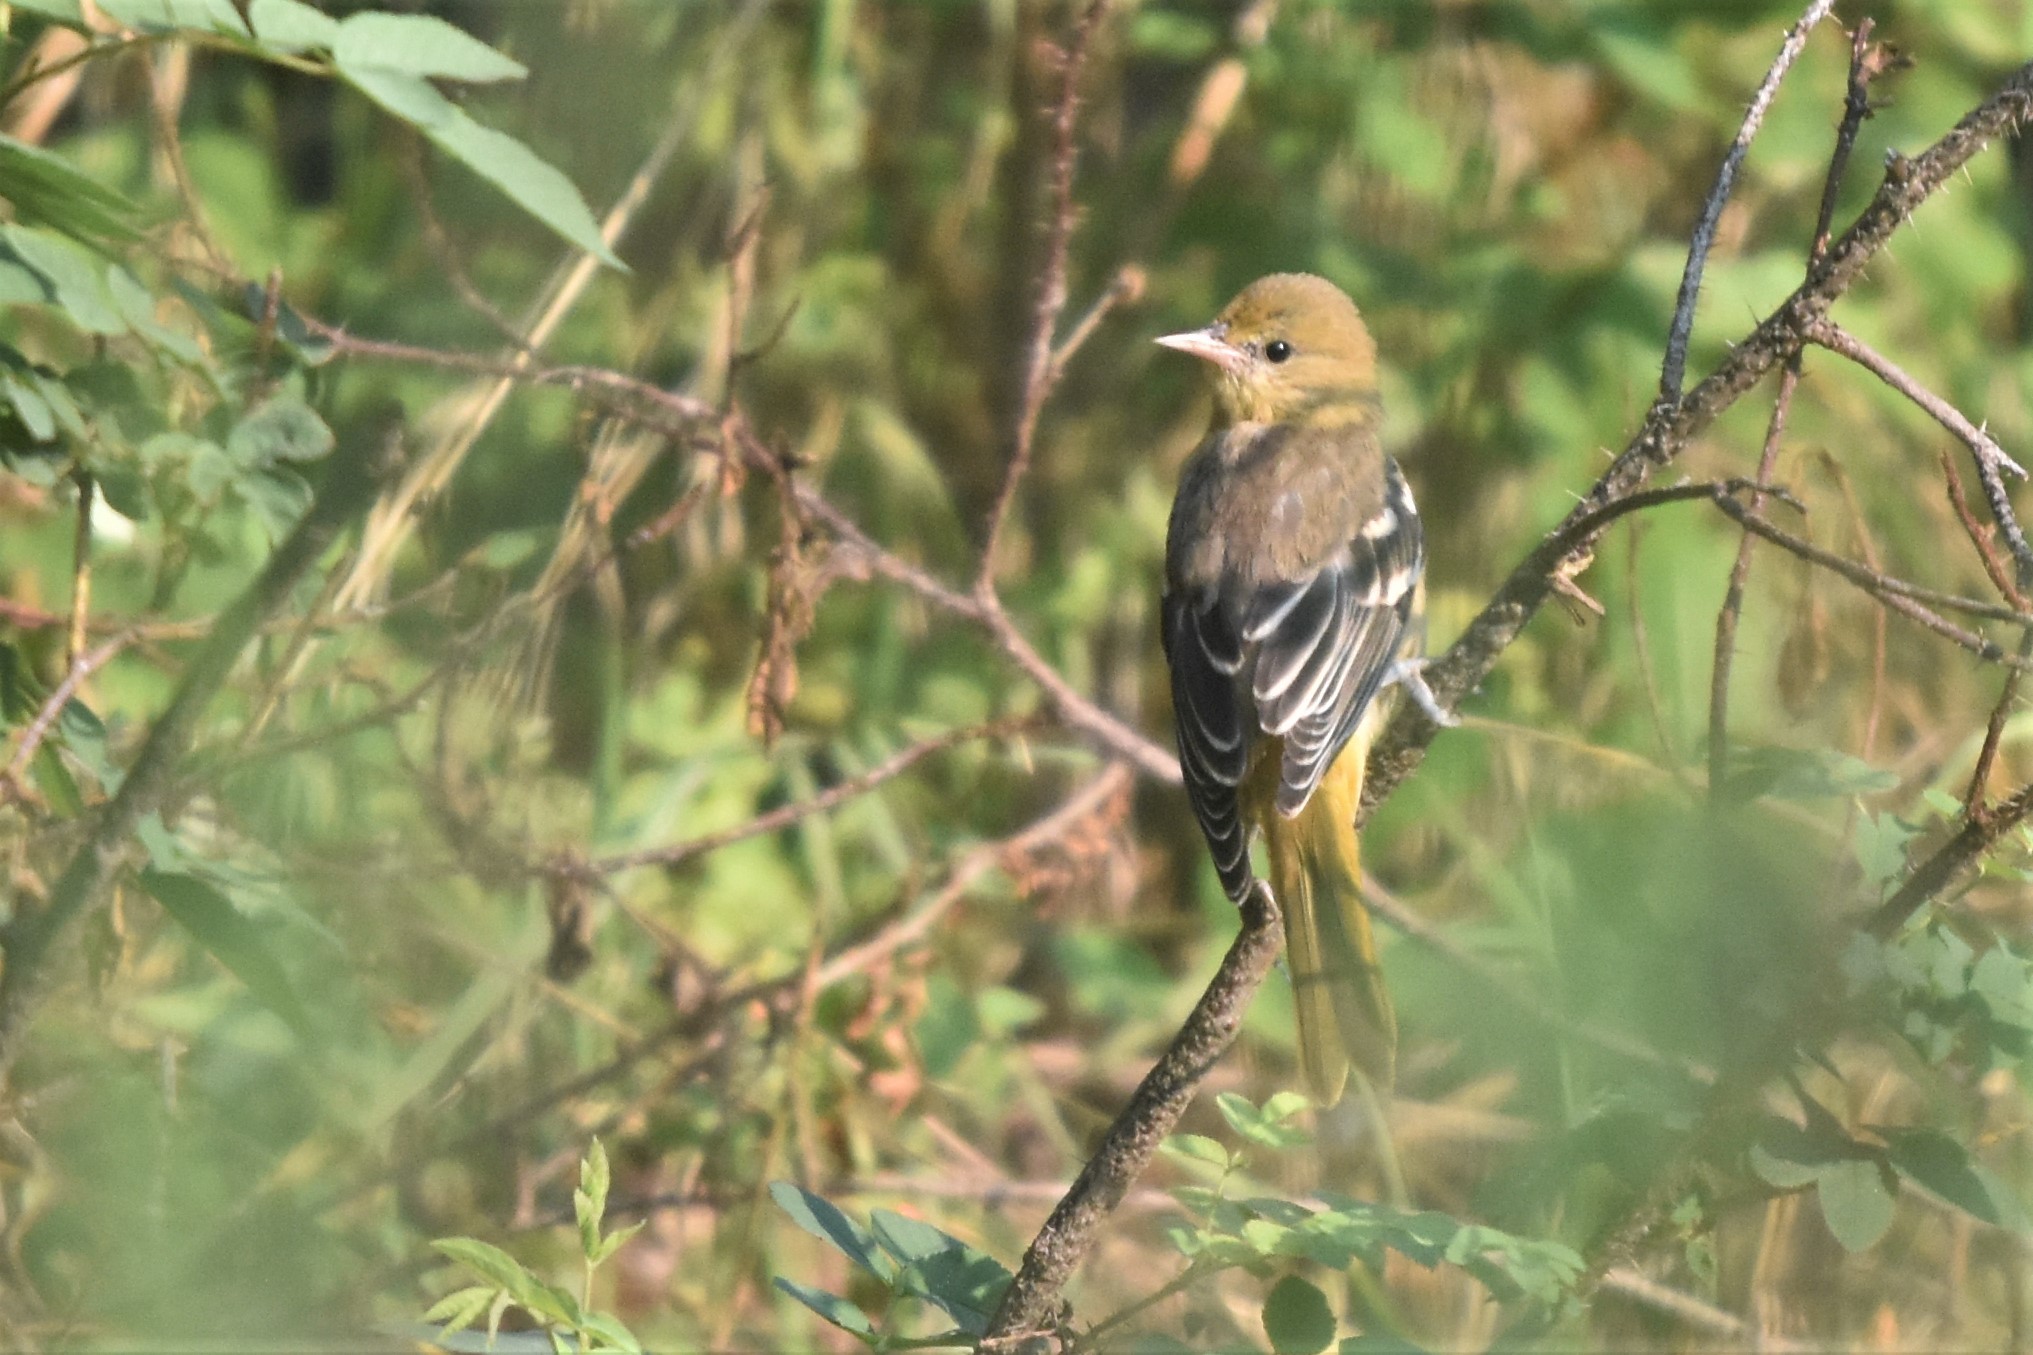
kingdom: Animalia
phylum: Chordata
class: Aves
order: Passeriformes
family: Icteridae
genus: Icterus
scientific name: Icterus galbula
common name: Baltimore oriole
